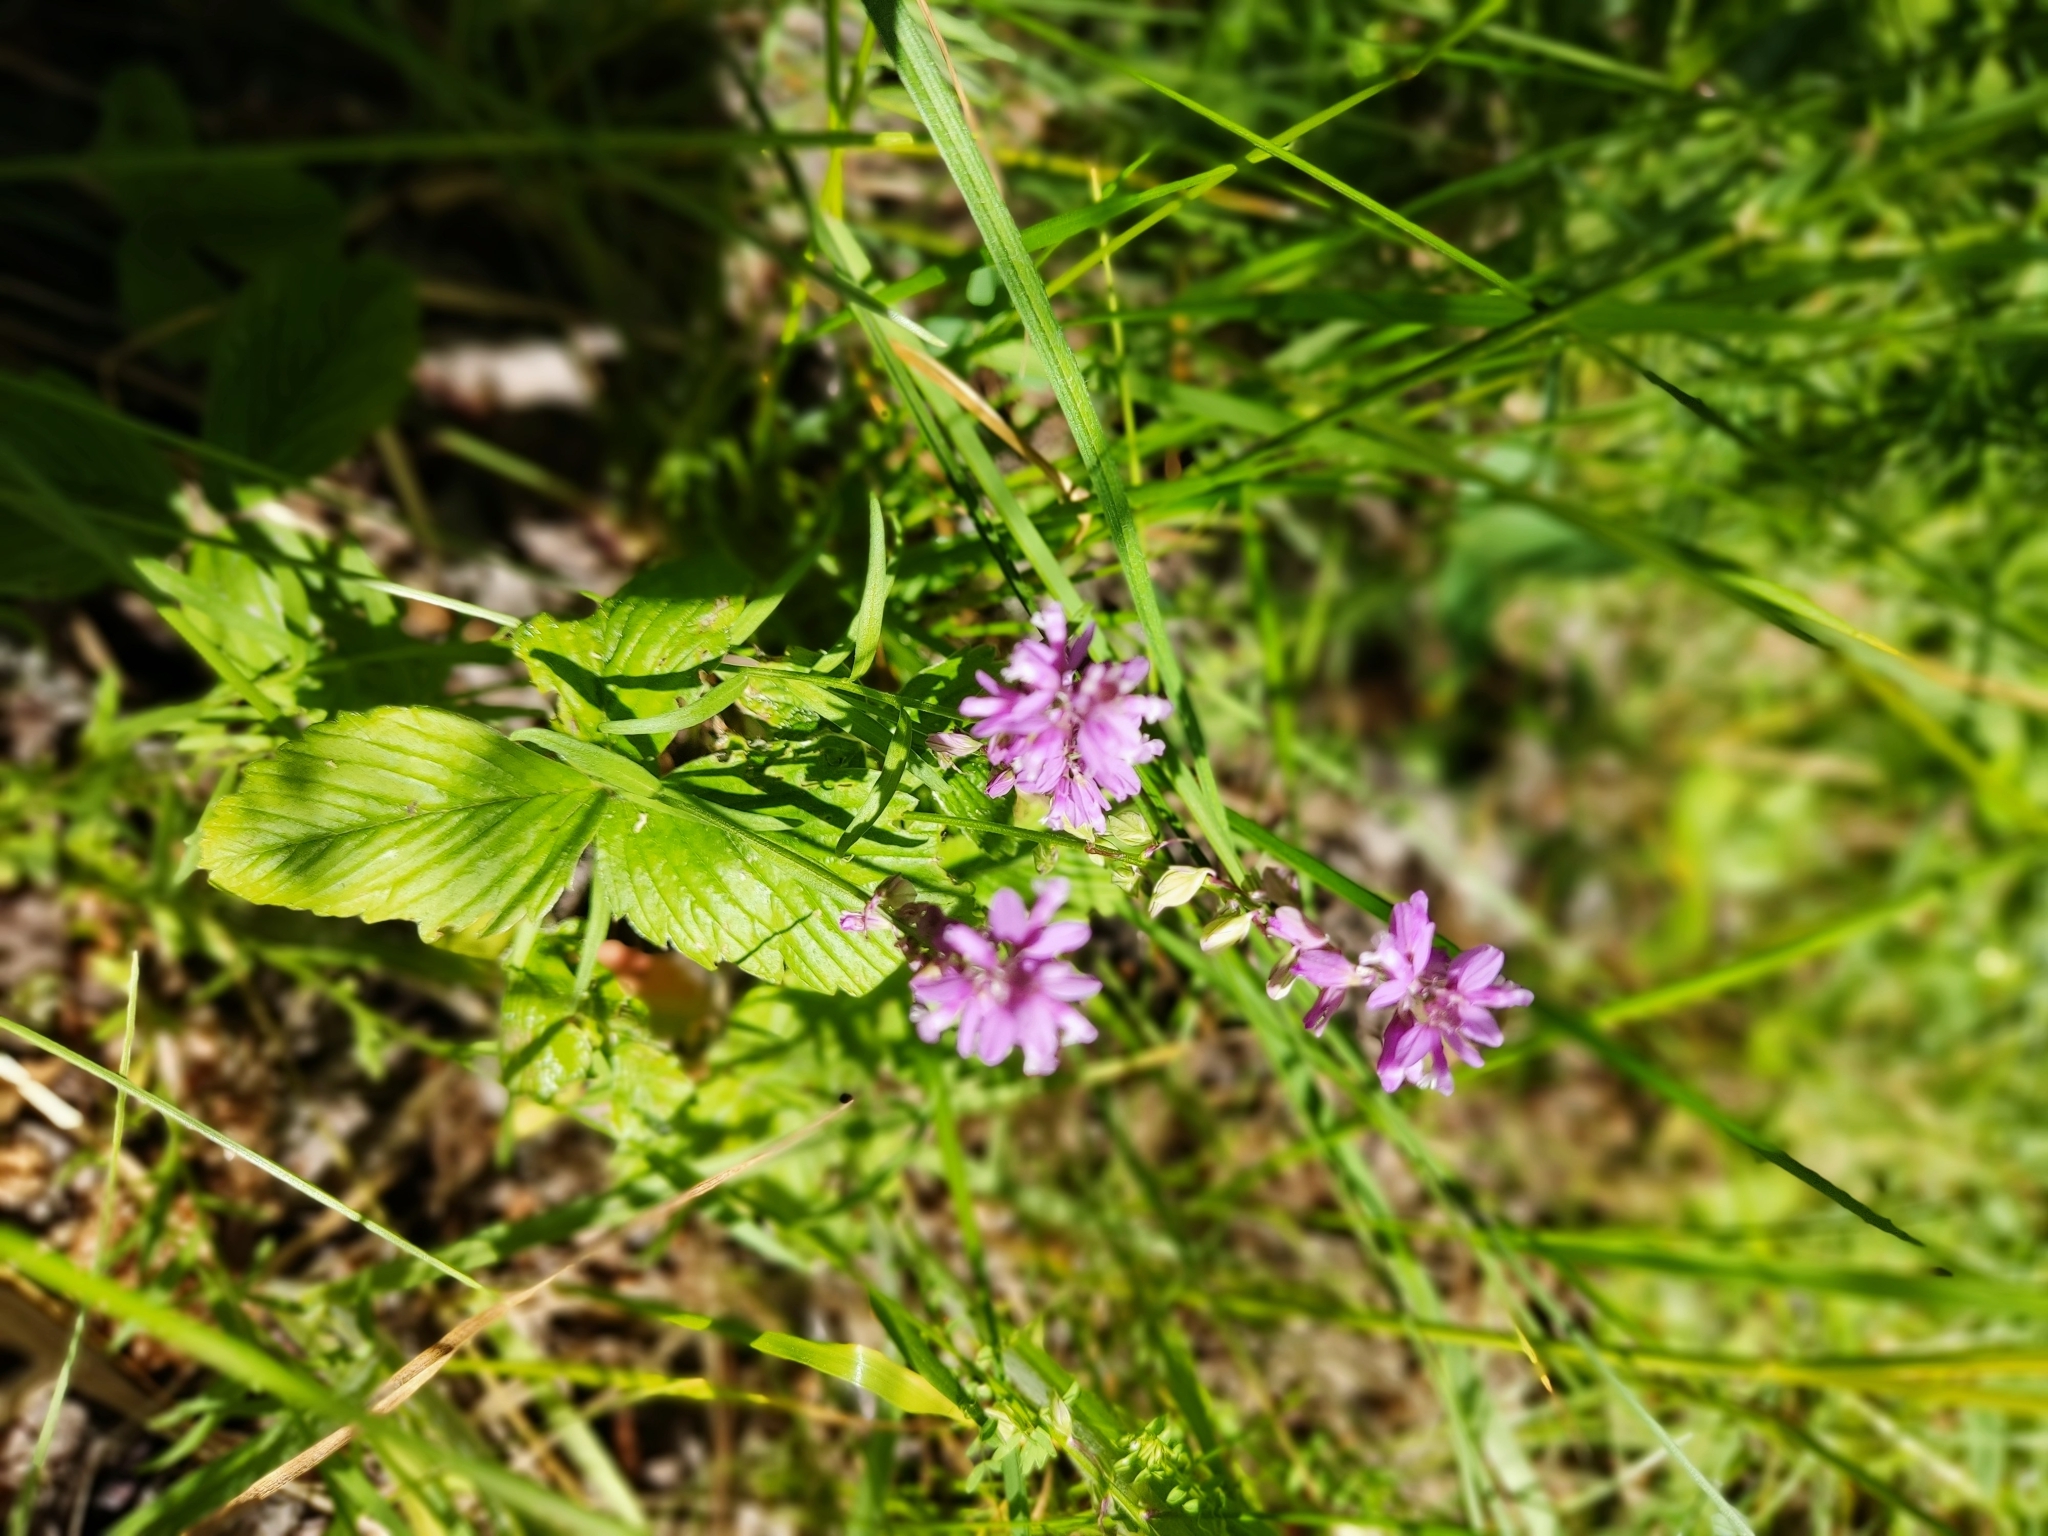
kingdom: Plantae
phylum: Tracheophyta
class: Magnoliopsida
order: Fabales
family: Polygalaceae
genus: Polygala
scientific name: Polygala comosa
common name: Tufted milkwort
